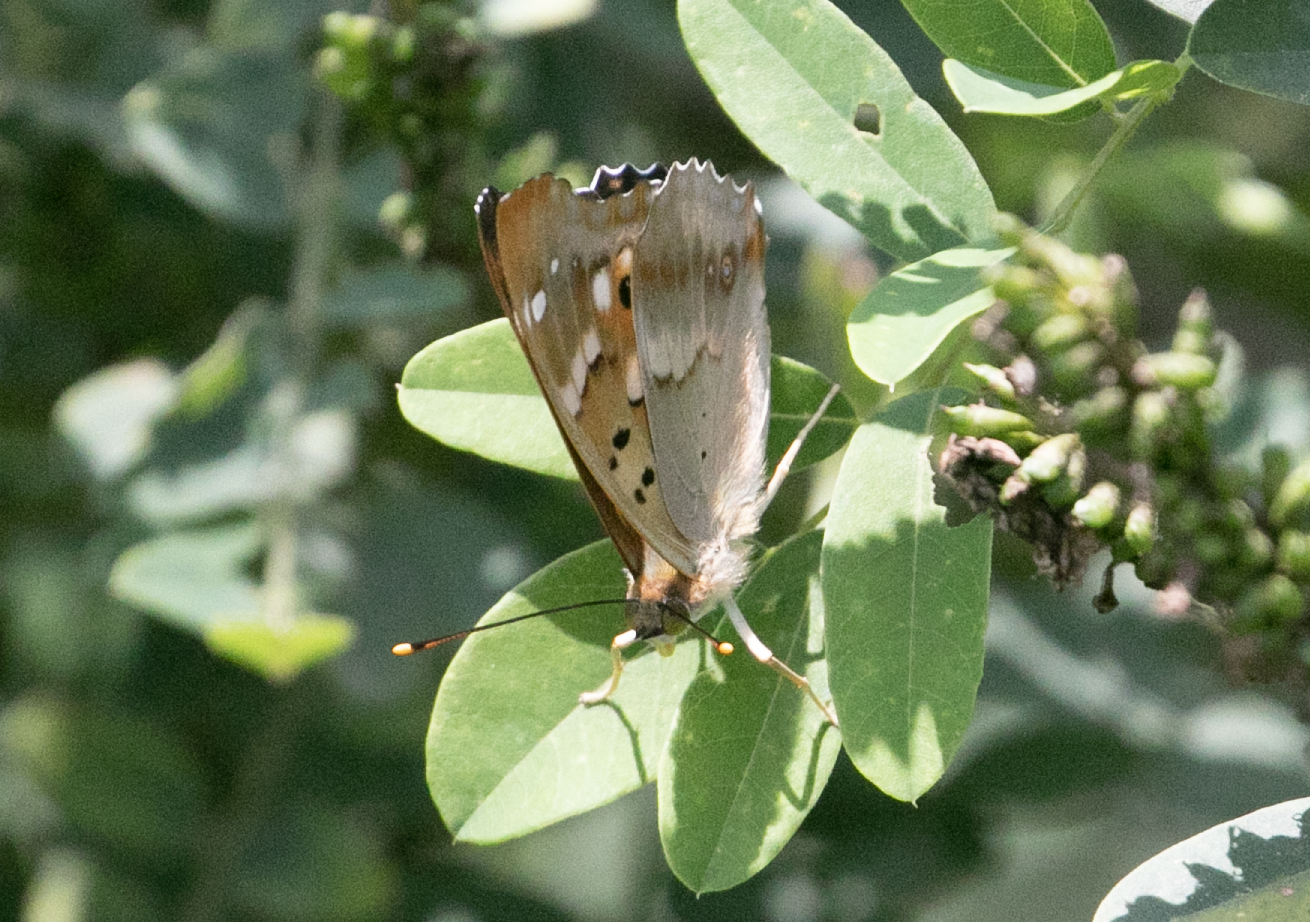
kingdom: Animalia
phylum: Arthropoda
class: Insecta
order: Lepidoptera
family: Nymphalidae
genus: Apatura
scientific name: Apatura ilia
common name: Lesser purple emperor
